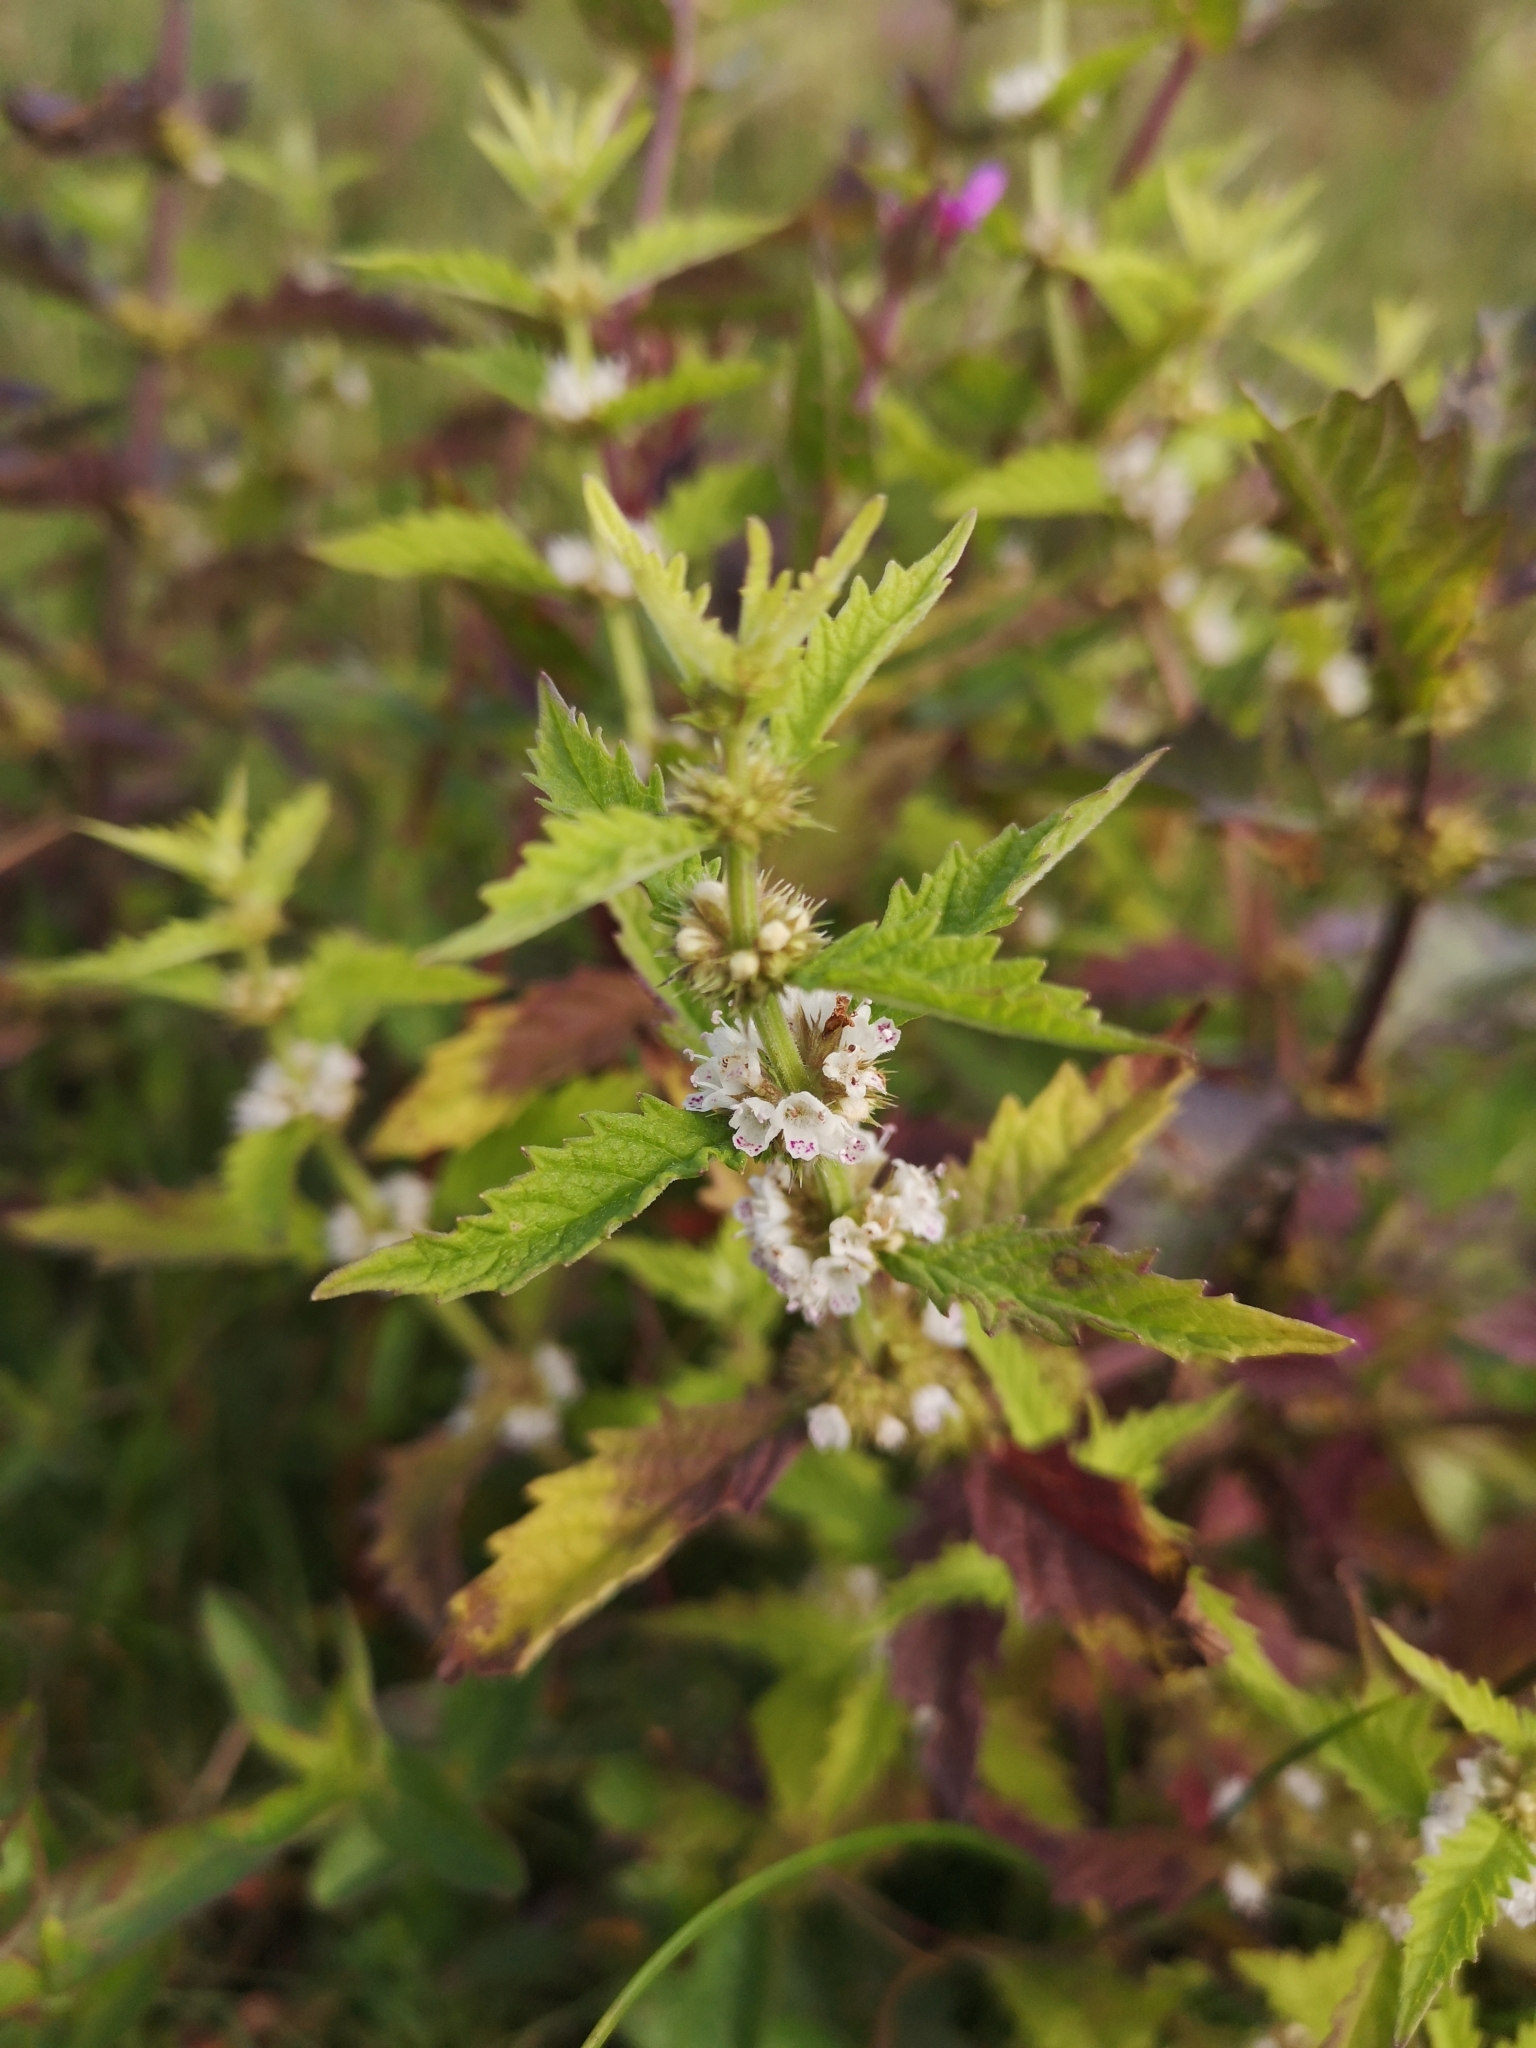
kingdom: Plantae
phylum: Tracheophyta
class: Magnoliopsida
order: Lamiales
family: Lamiaceae
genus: Lycopus
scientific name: Lycopus europaeus
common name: European bugleweed
